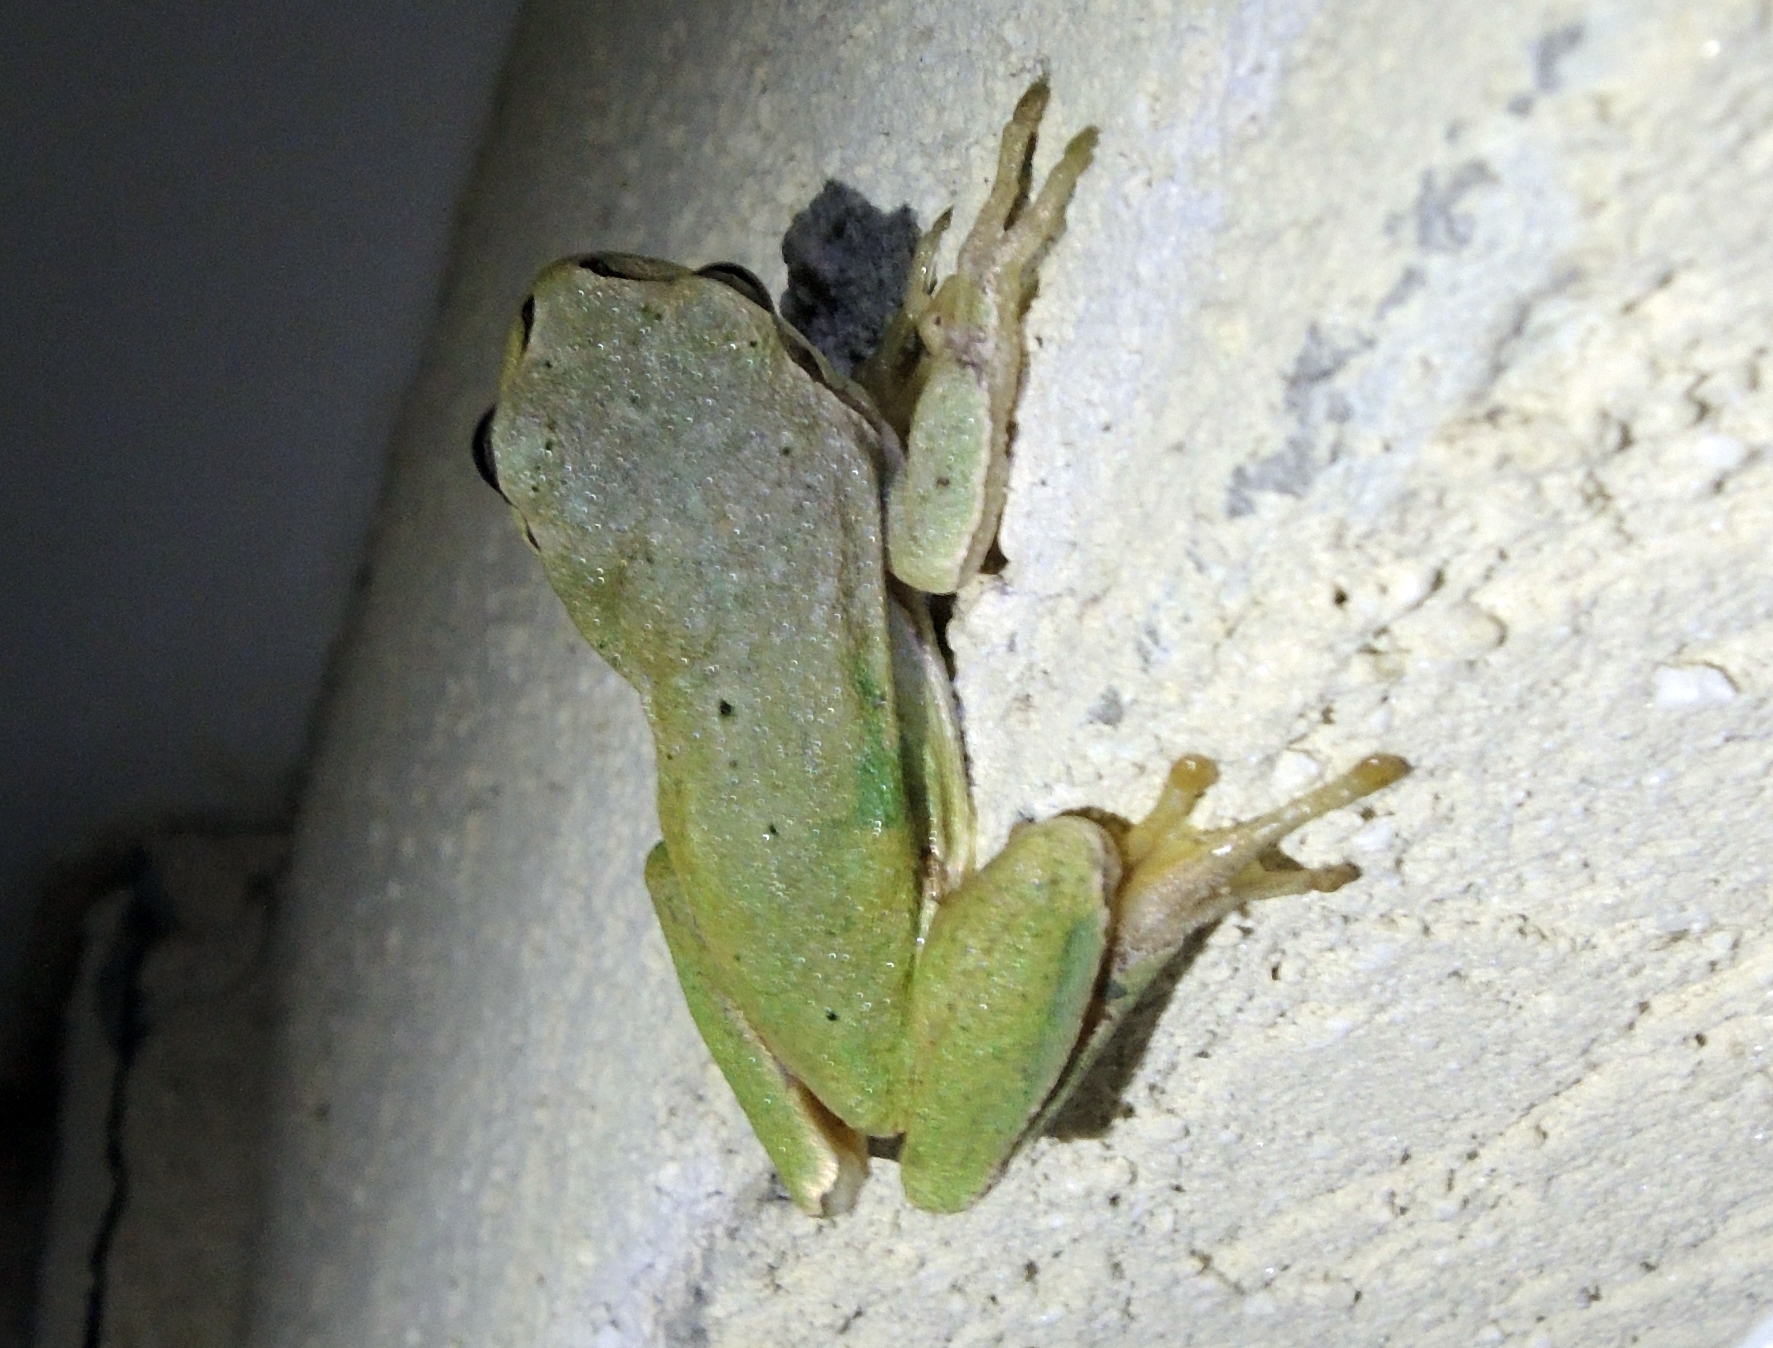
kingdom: Animalia
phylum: Chordata
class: Amphibia
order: Anura
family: Hylidae
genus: Hyla
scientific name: Hyla orientalis
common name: Caucasian treefrog
